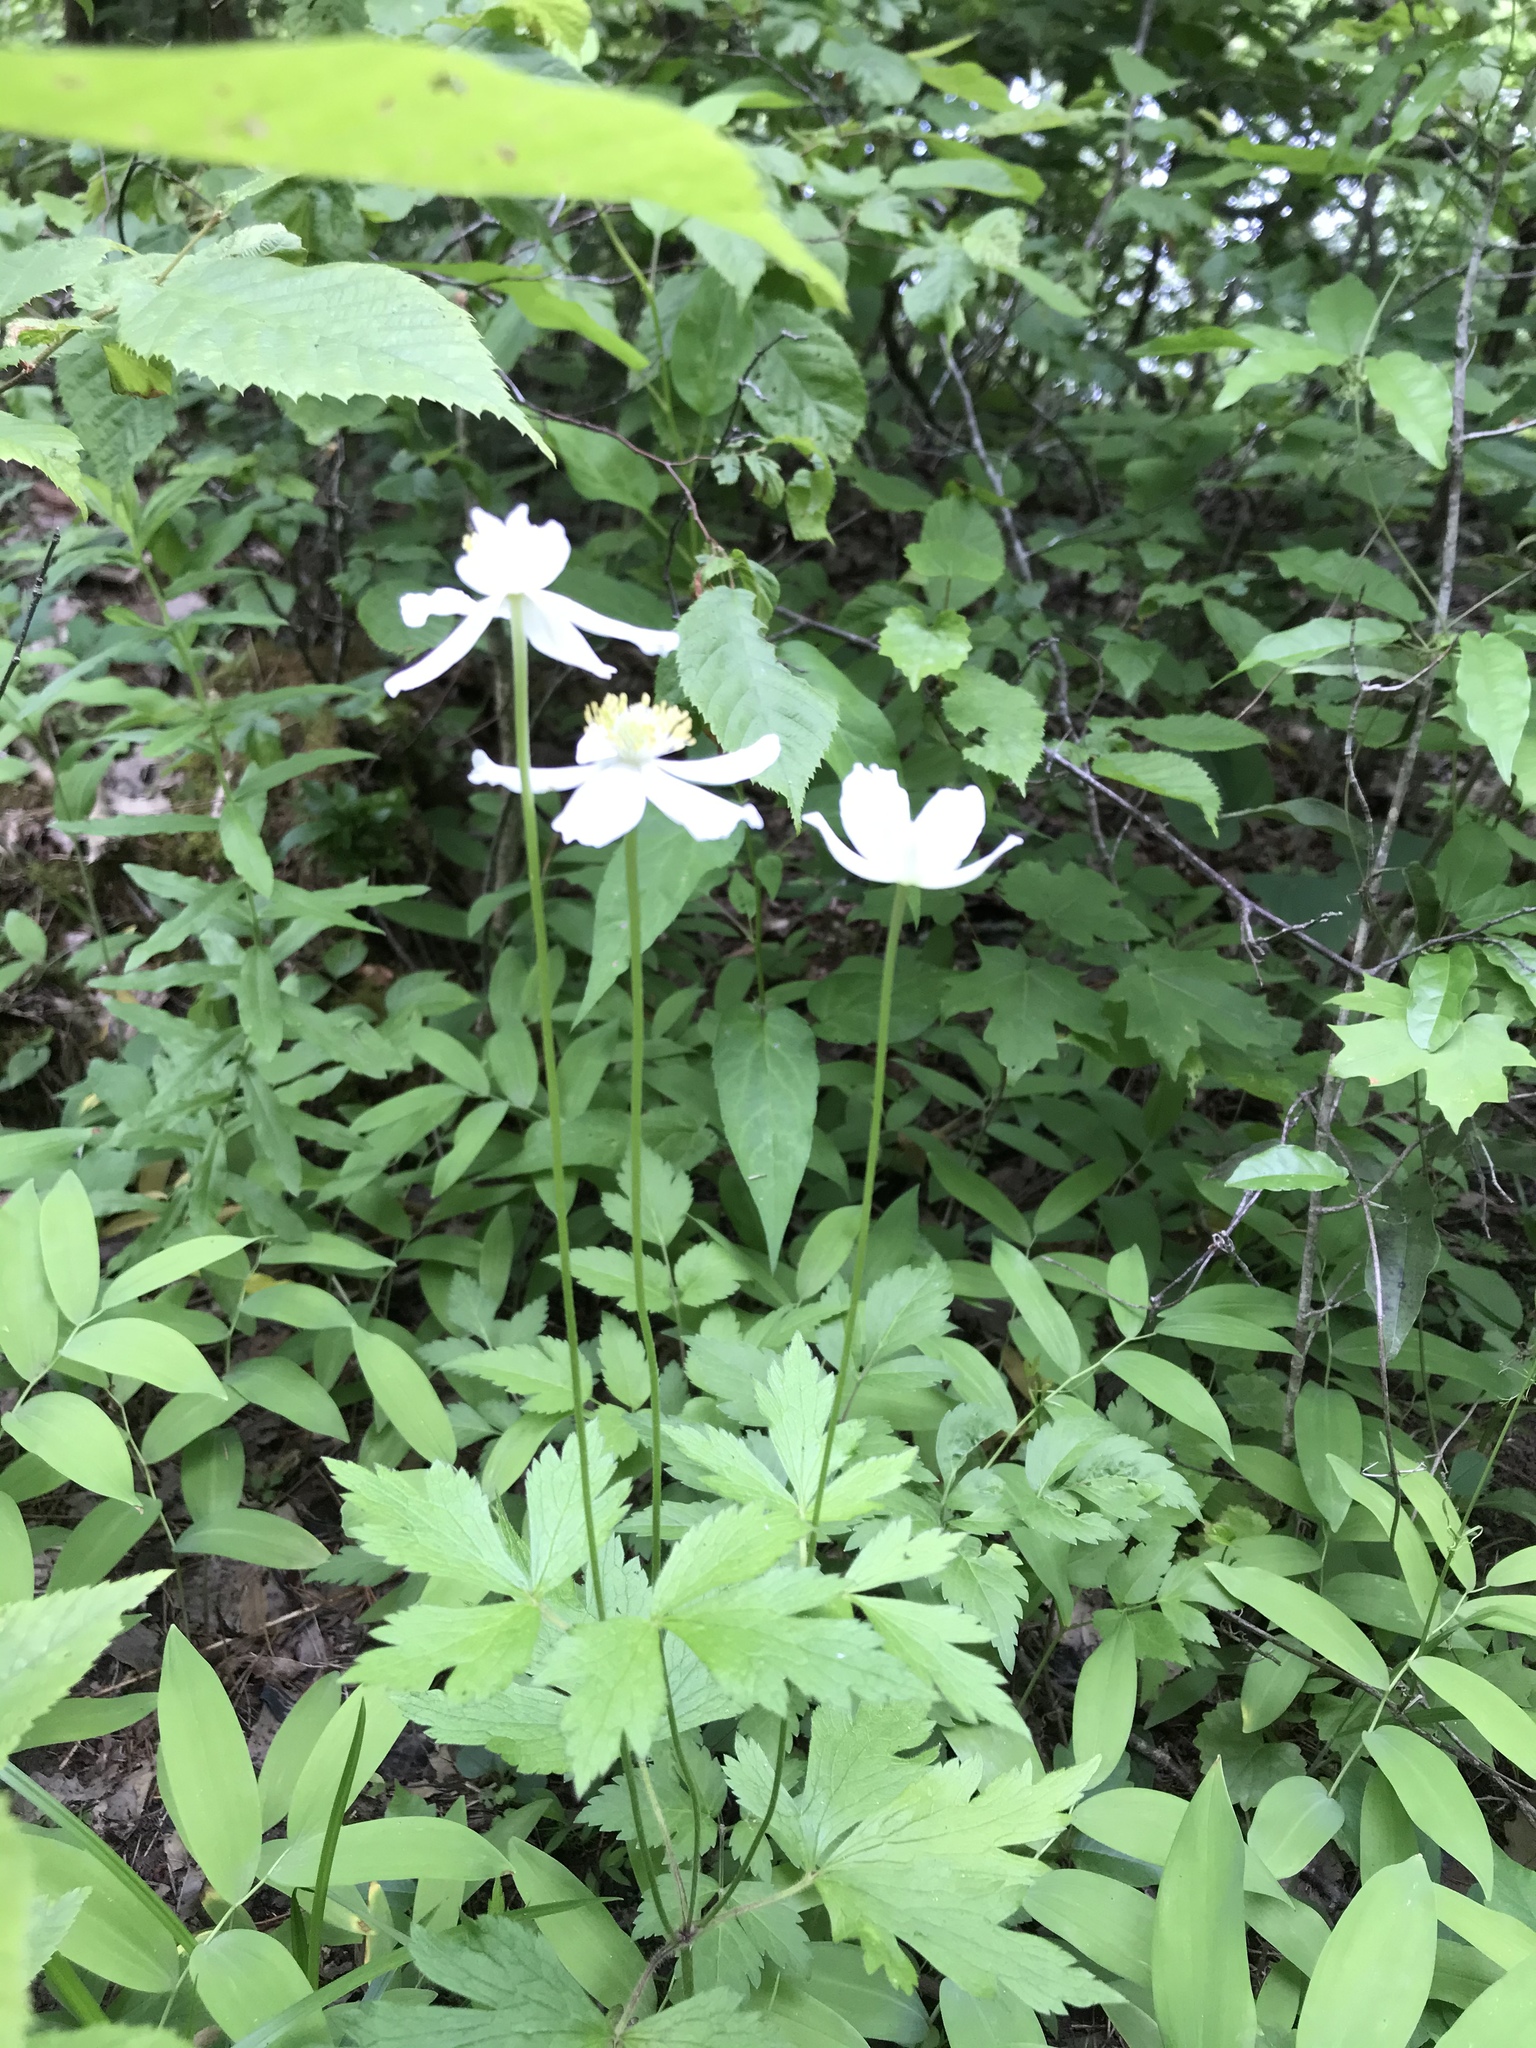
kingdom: Plantae
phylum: Tracheophyta
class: Magnoliopsida
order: Ranunculales
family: Ranunculaceae
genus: Anemone
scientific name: Anemone virginiana
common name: Tall anemone
